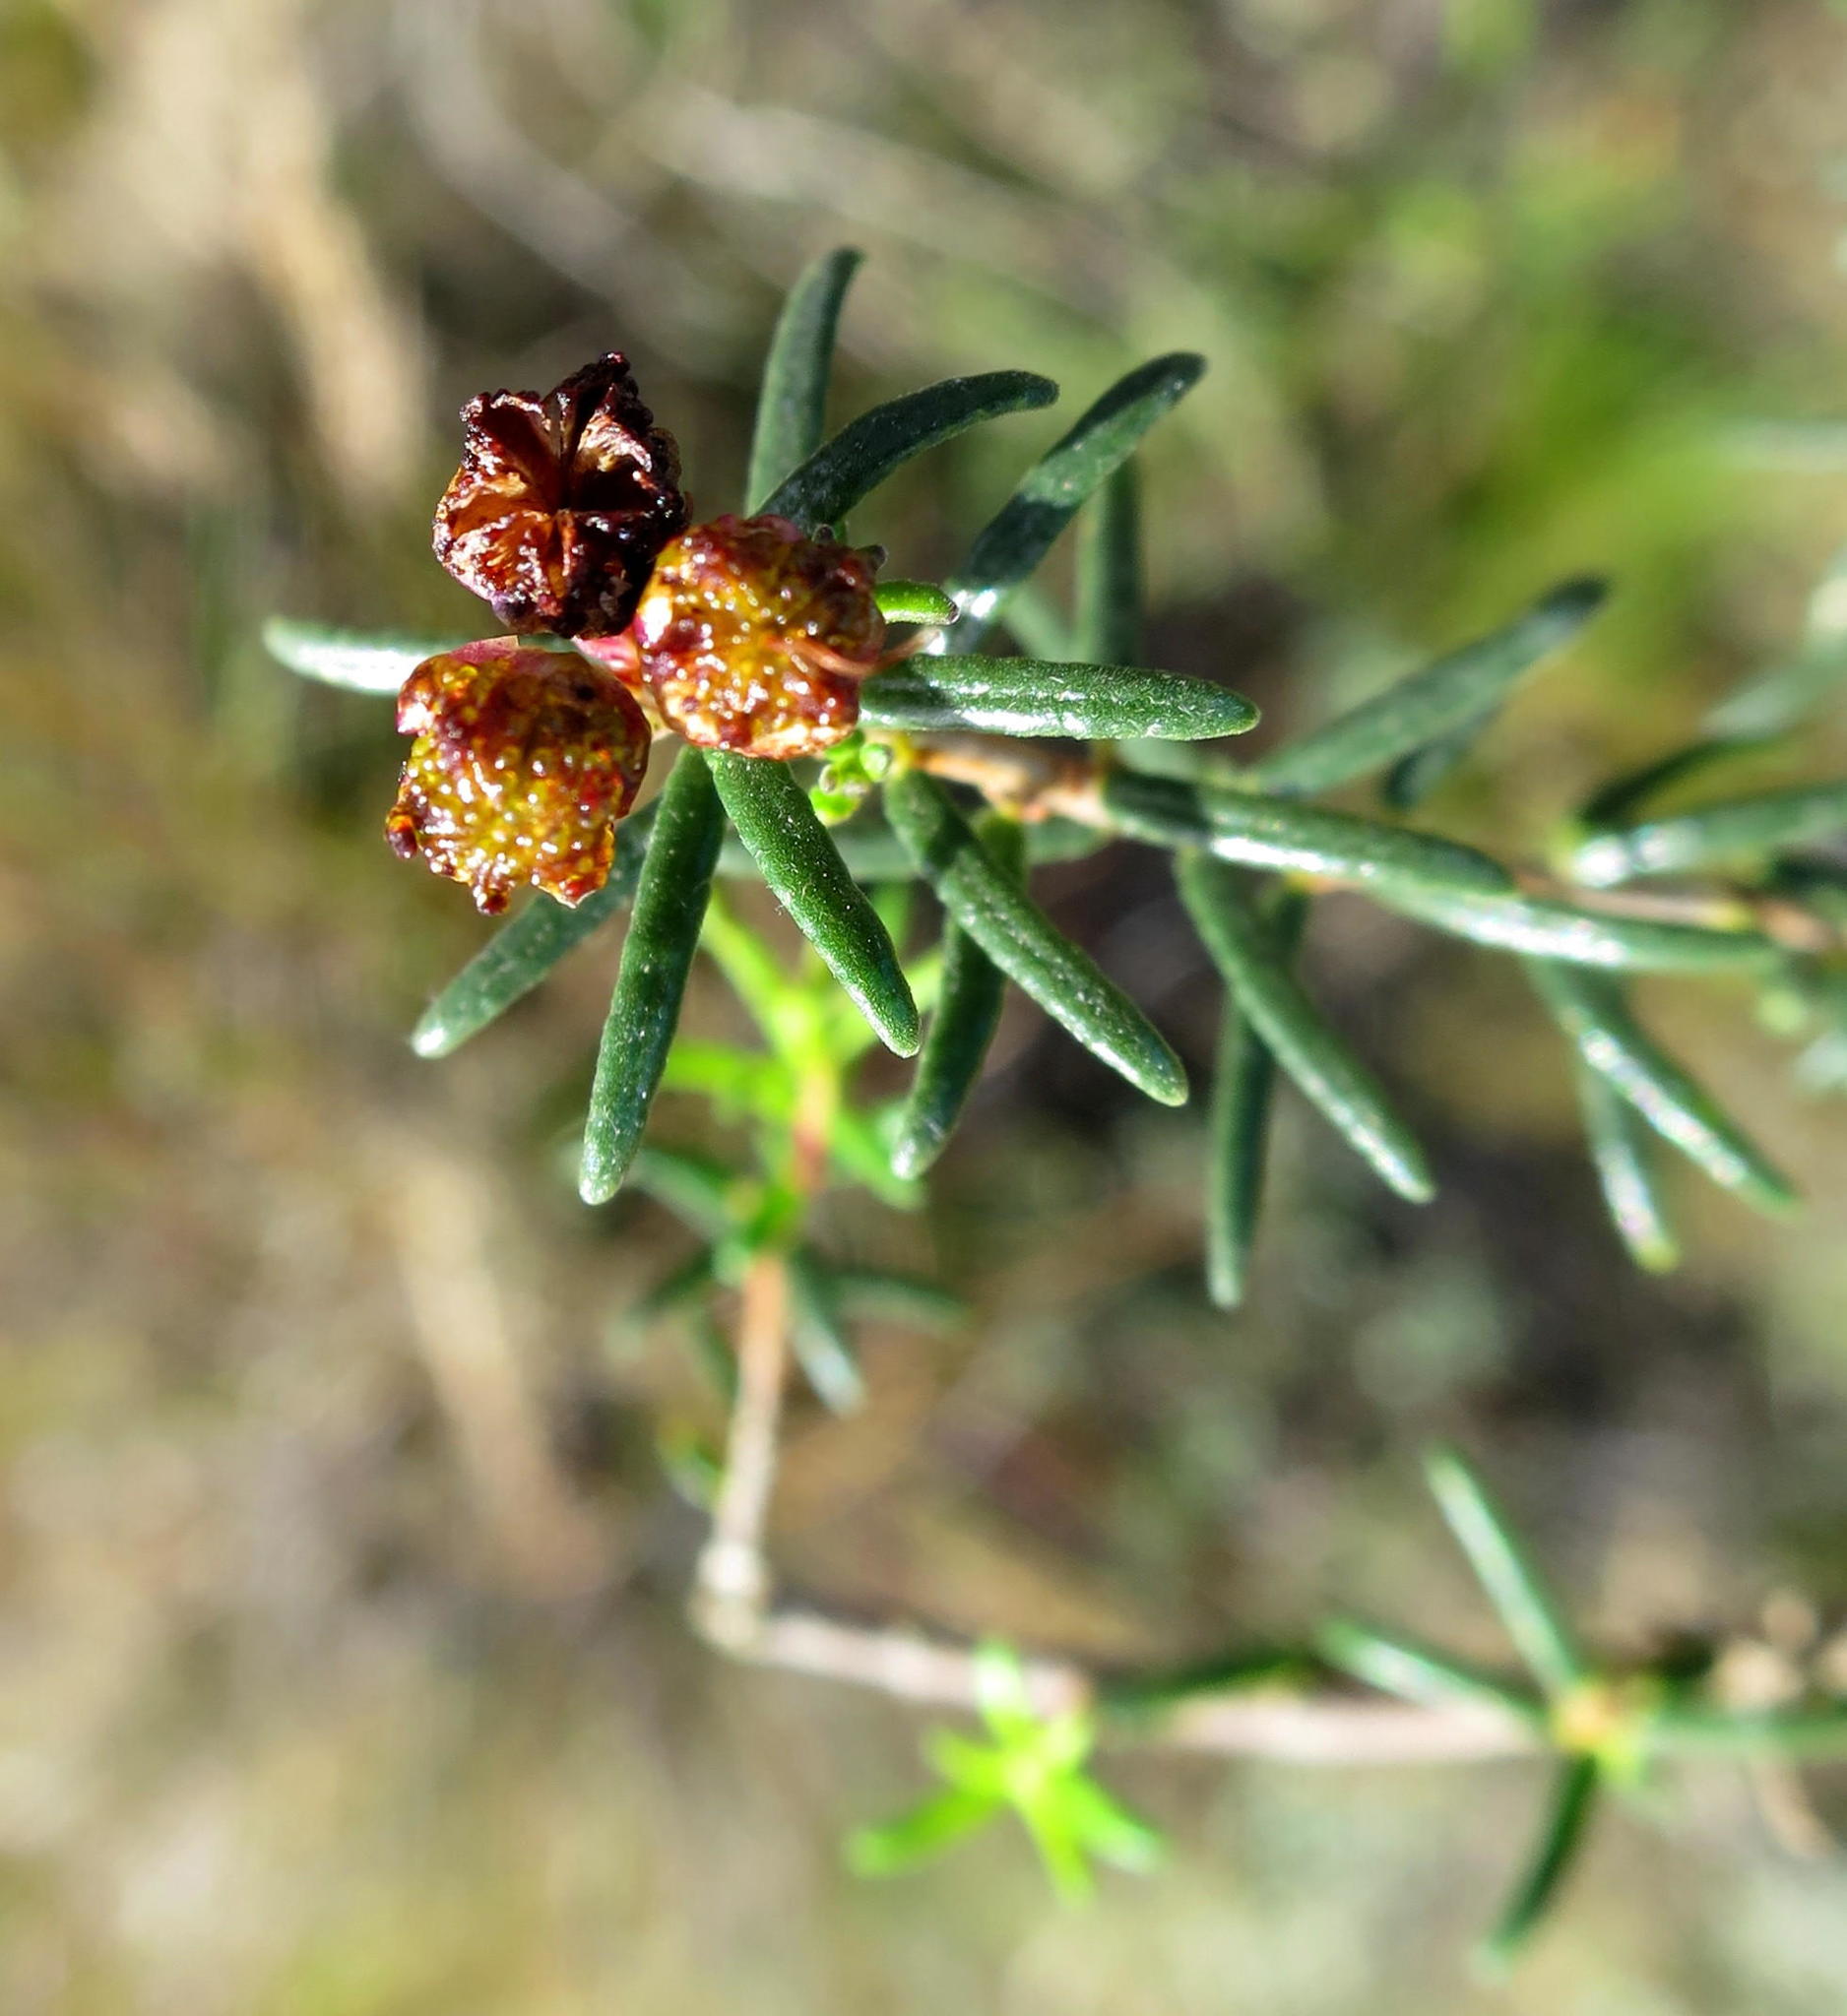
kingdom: Plantae
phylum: Tracheophyta
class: Magnoliopsida
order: Sapindales
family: Rutaceae
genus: Agathosma
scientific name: Agathosma foetidissima
